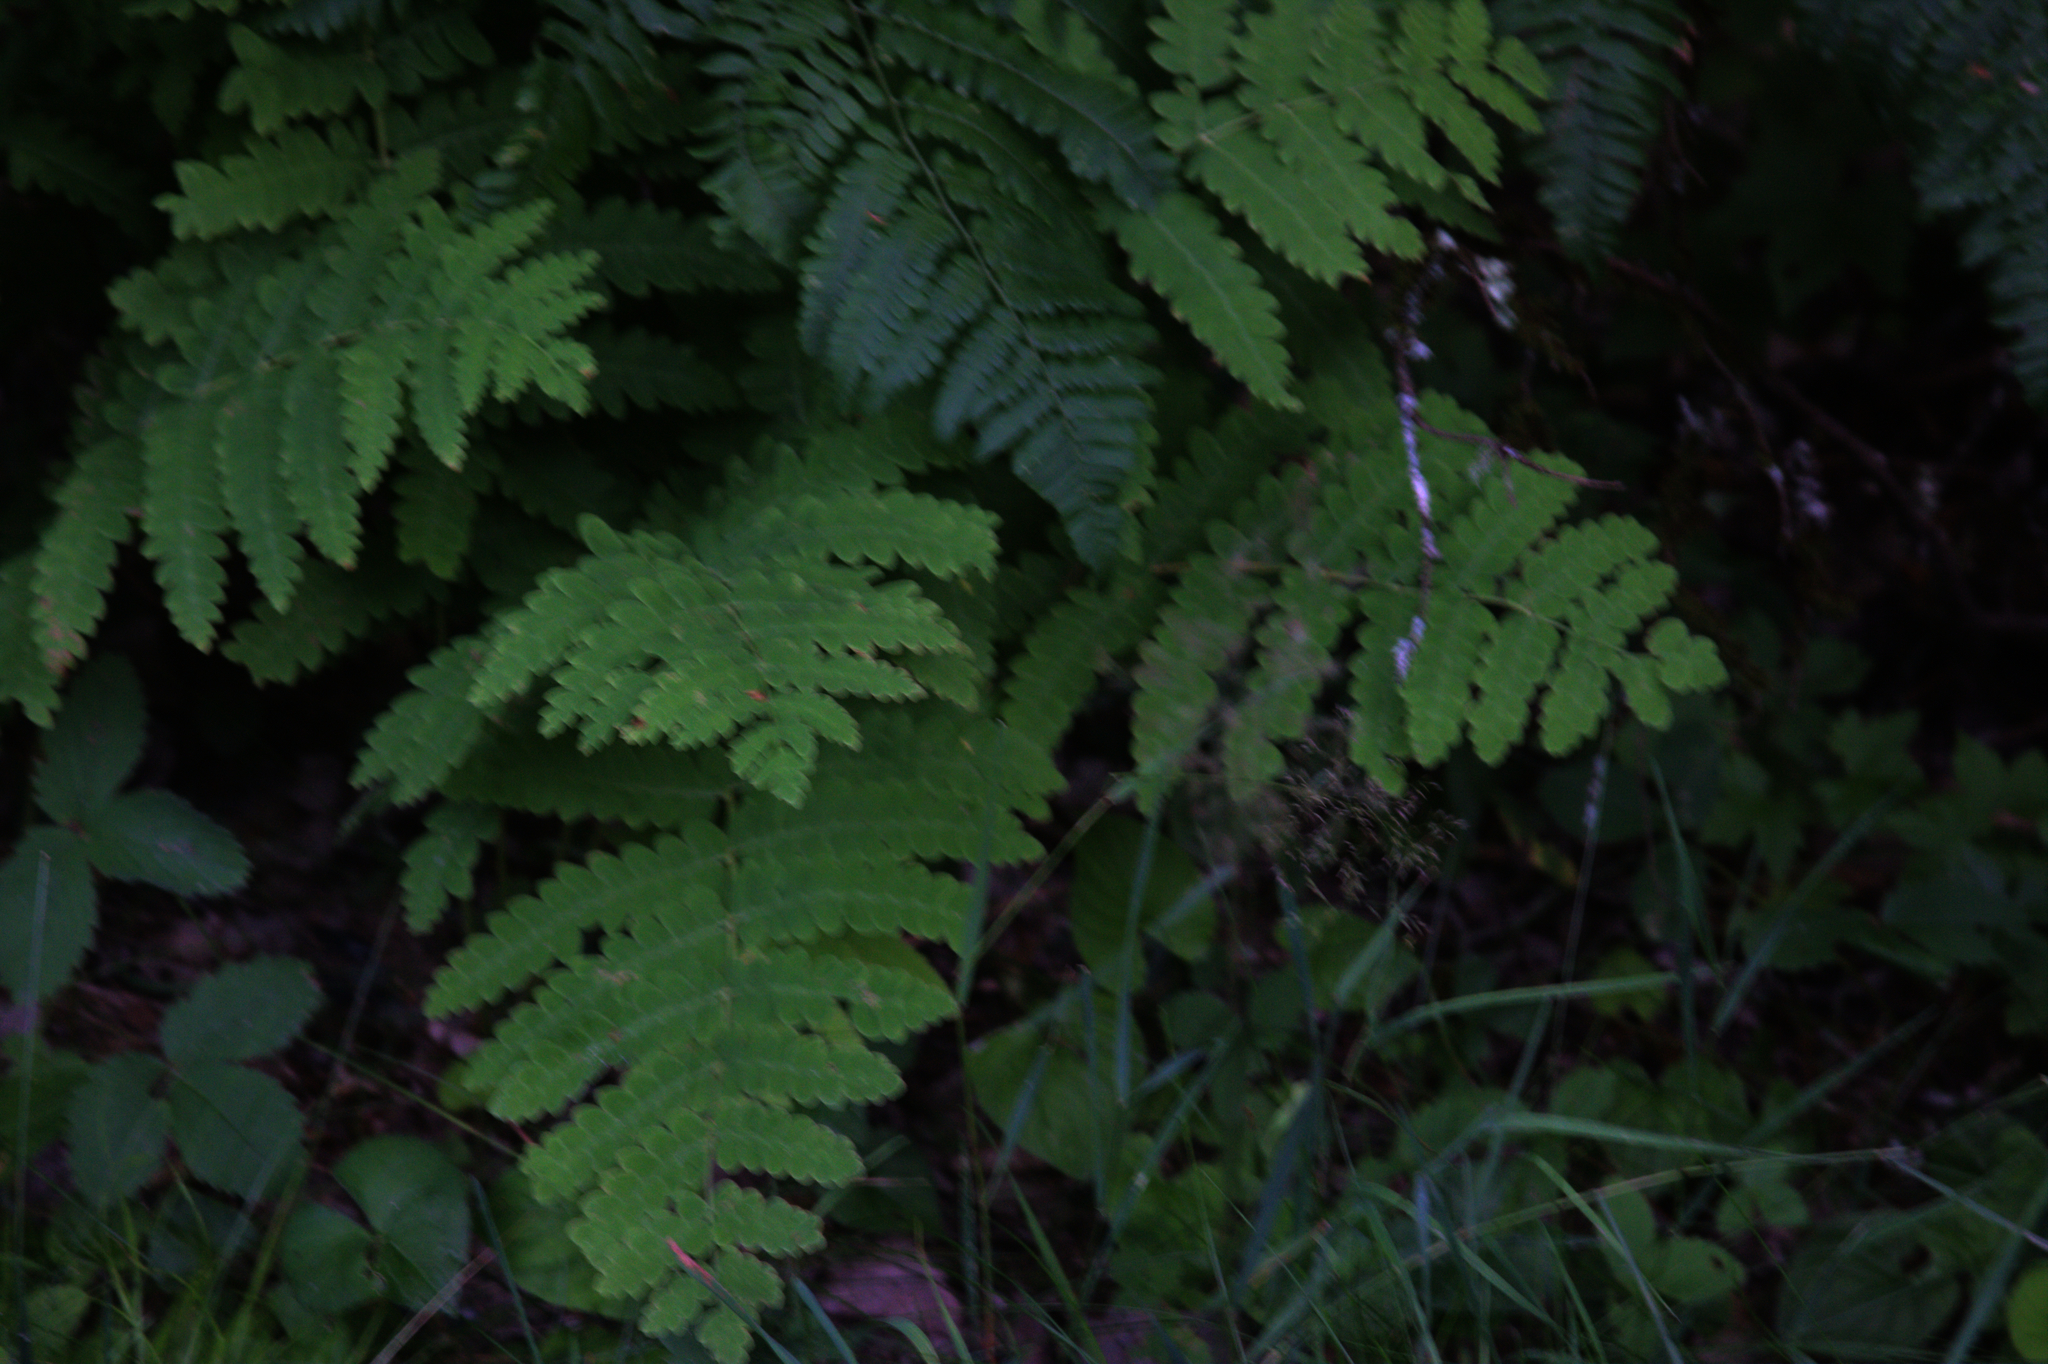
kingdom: Plantae
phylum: Tracheophyta
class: Polypodiopsida
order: Osmundales
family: Osmundaceae
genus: Claytosmunda
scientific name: Claytosmunda claytoniana
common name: Clayton's fern
